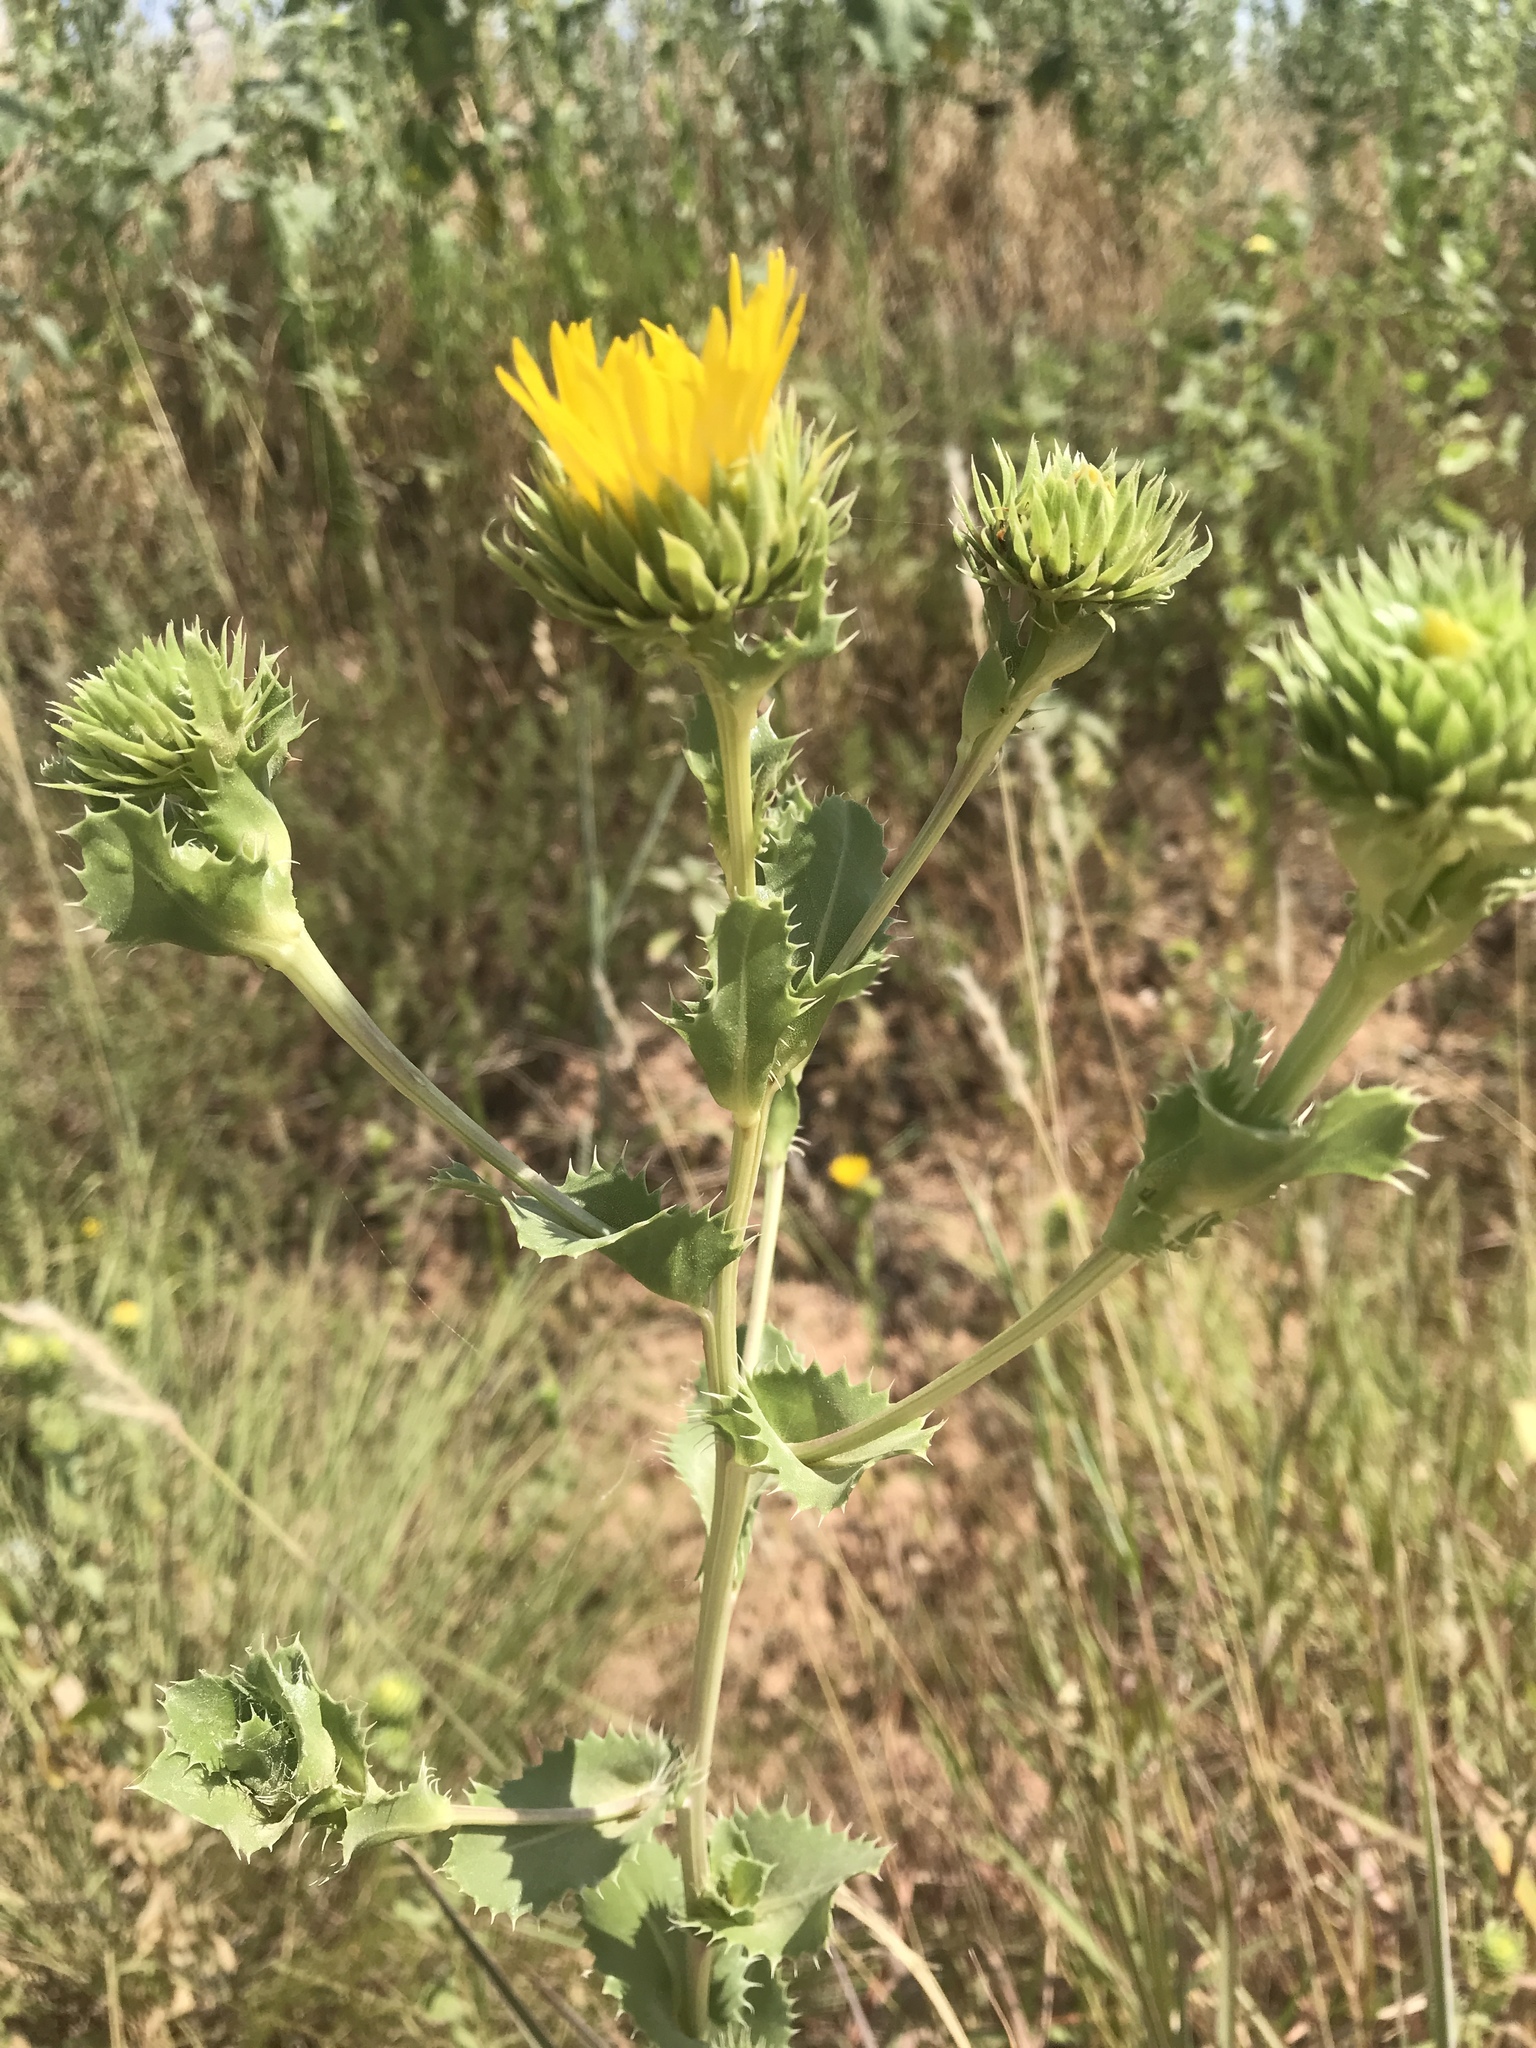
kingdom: Plantae
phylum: Tracheophyta
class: Magnoliopsida
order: Asterales
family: Asteraceae
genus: Grindelia
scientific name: Grindelia ciliata
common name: Goldenweed
